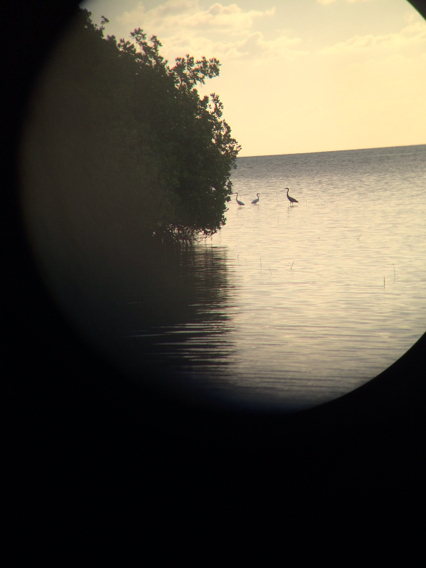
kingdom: Animalia
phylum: Chordata
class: Aves
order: Pelecaniformes
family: Ardeidae
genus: Ardea
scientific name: Ardea alba
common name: Great egret
